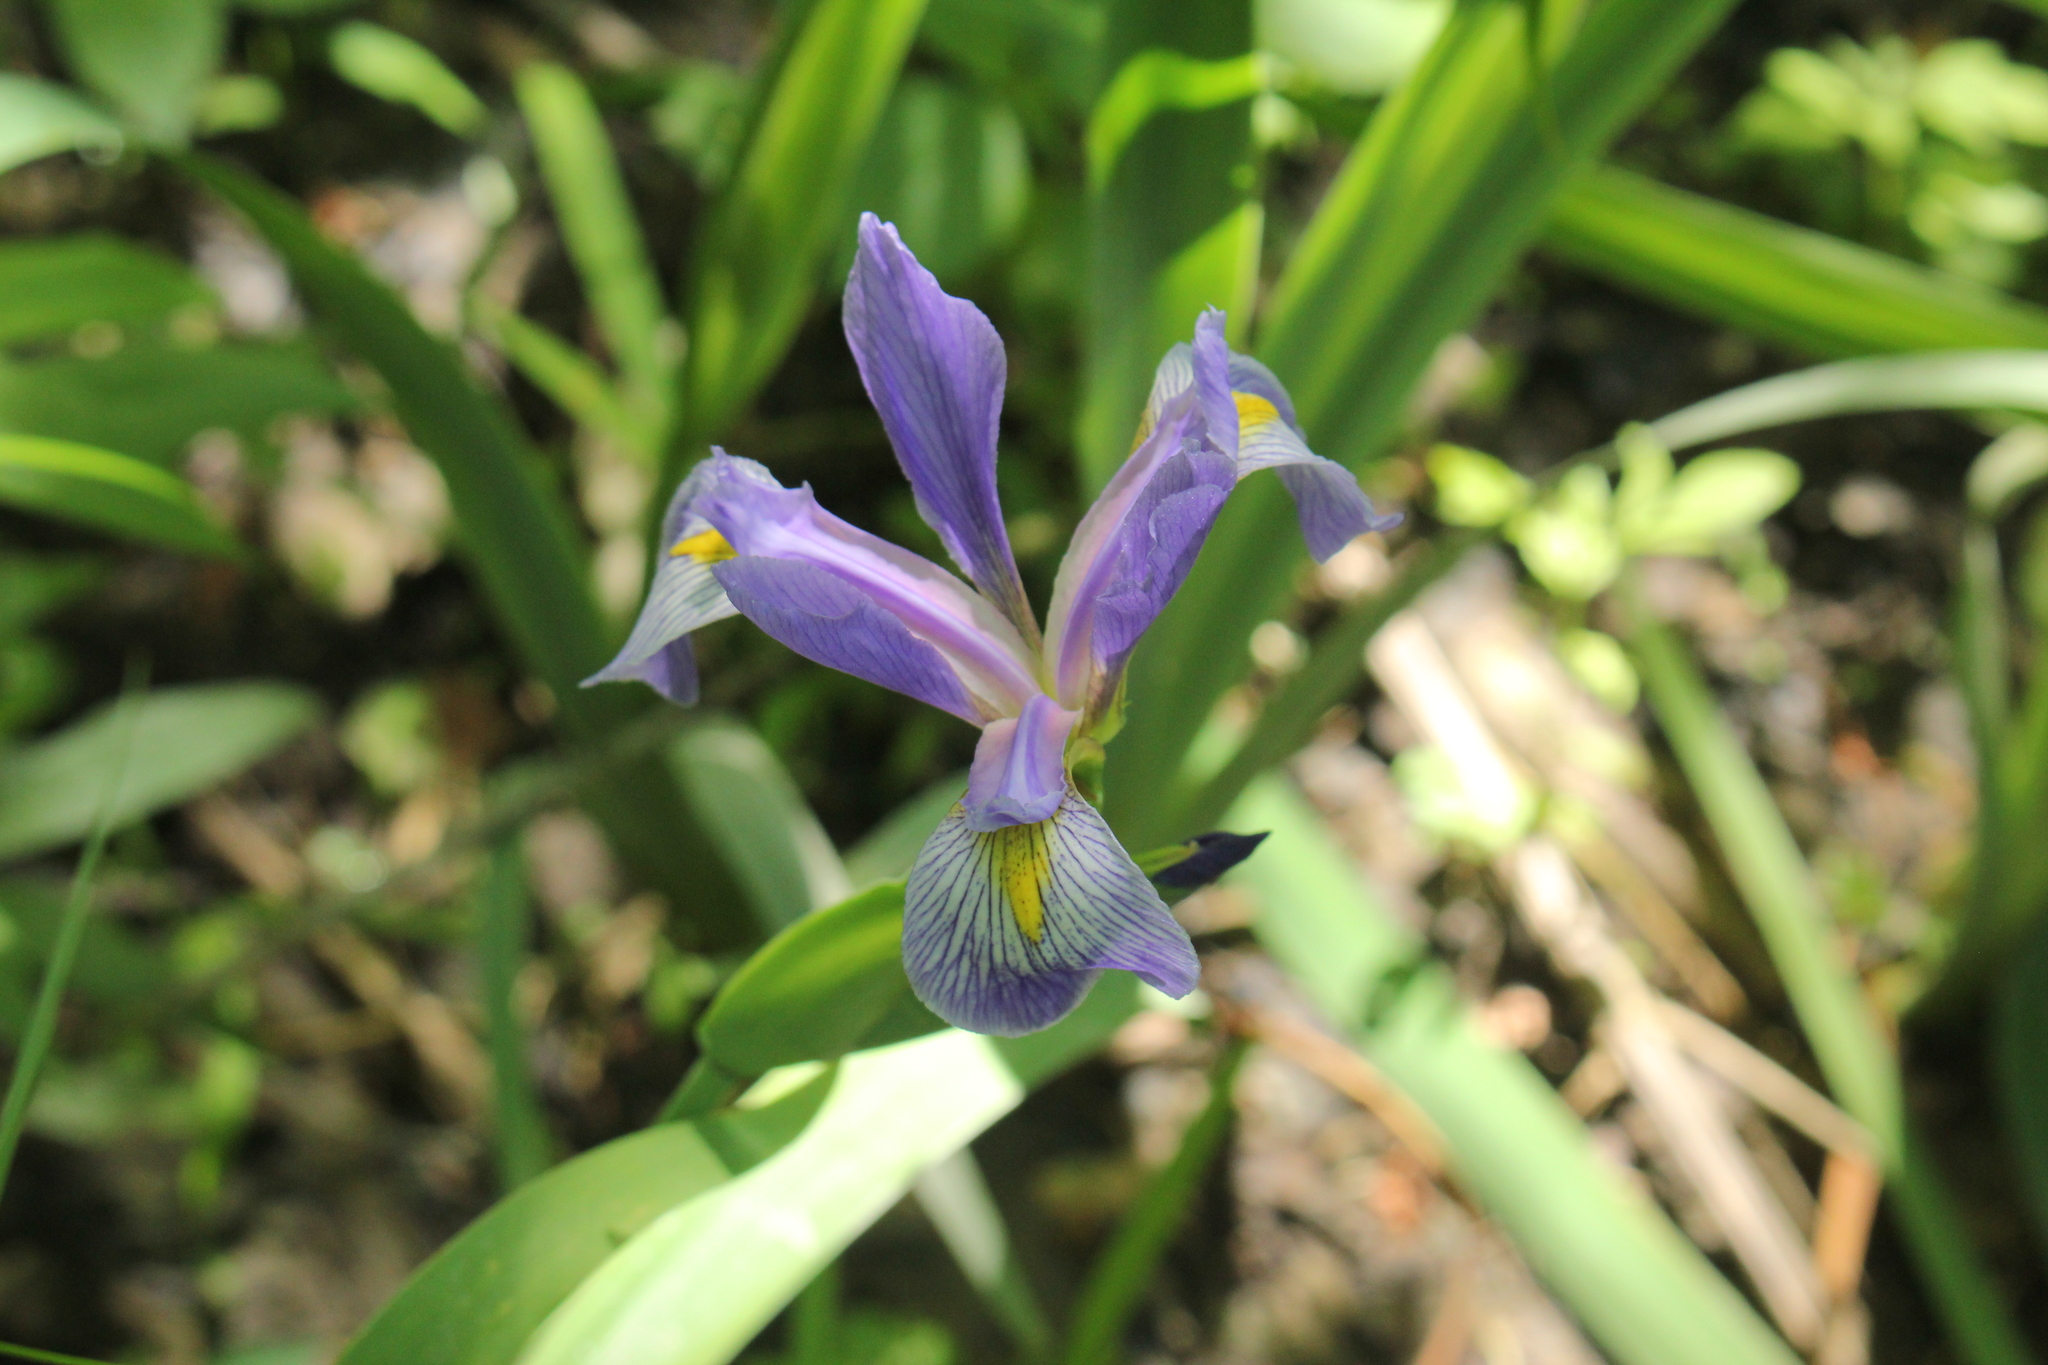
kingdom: Plantae
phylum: Tracheophyta
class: Liliopsida
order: Asparagales
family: Iridaceae
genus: Iris
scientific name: Iris virginica
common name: Southern blue flag
